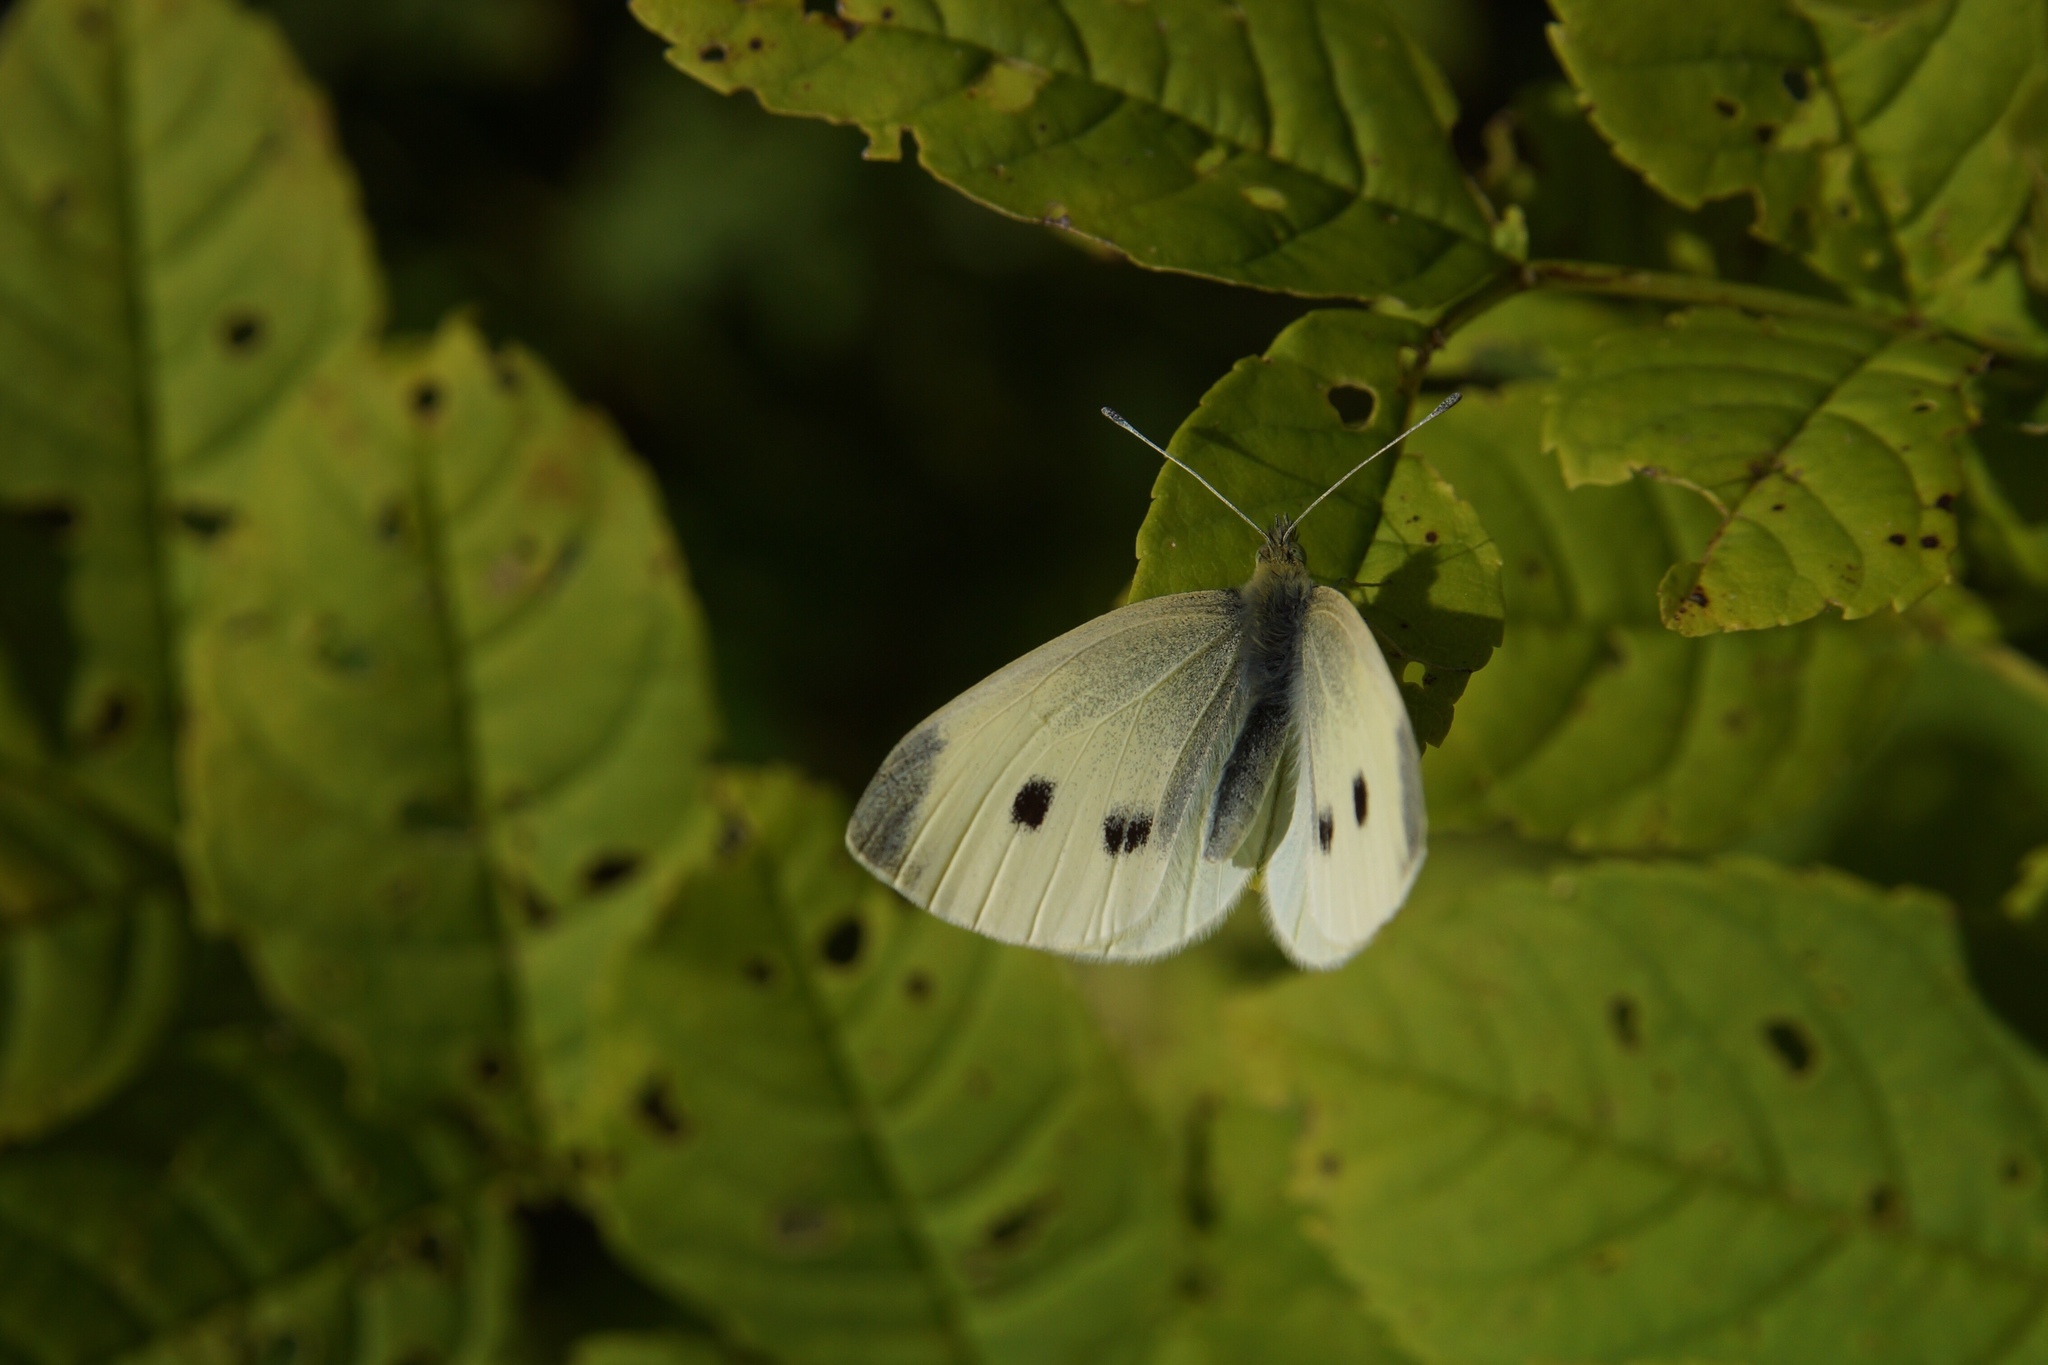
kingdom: Animalia
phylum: Arthropoda
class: Insecta
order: Lepidoptera
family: Pieridae
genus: Pieris
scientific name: Pieris rapae
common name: Small white
